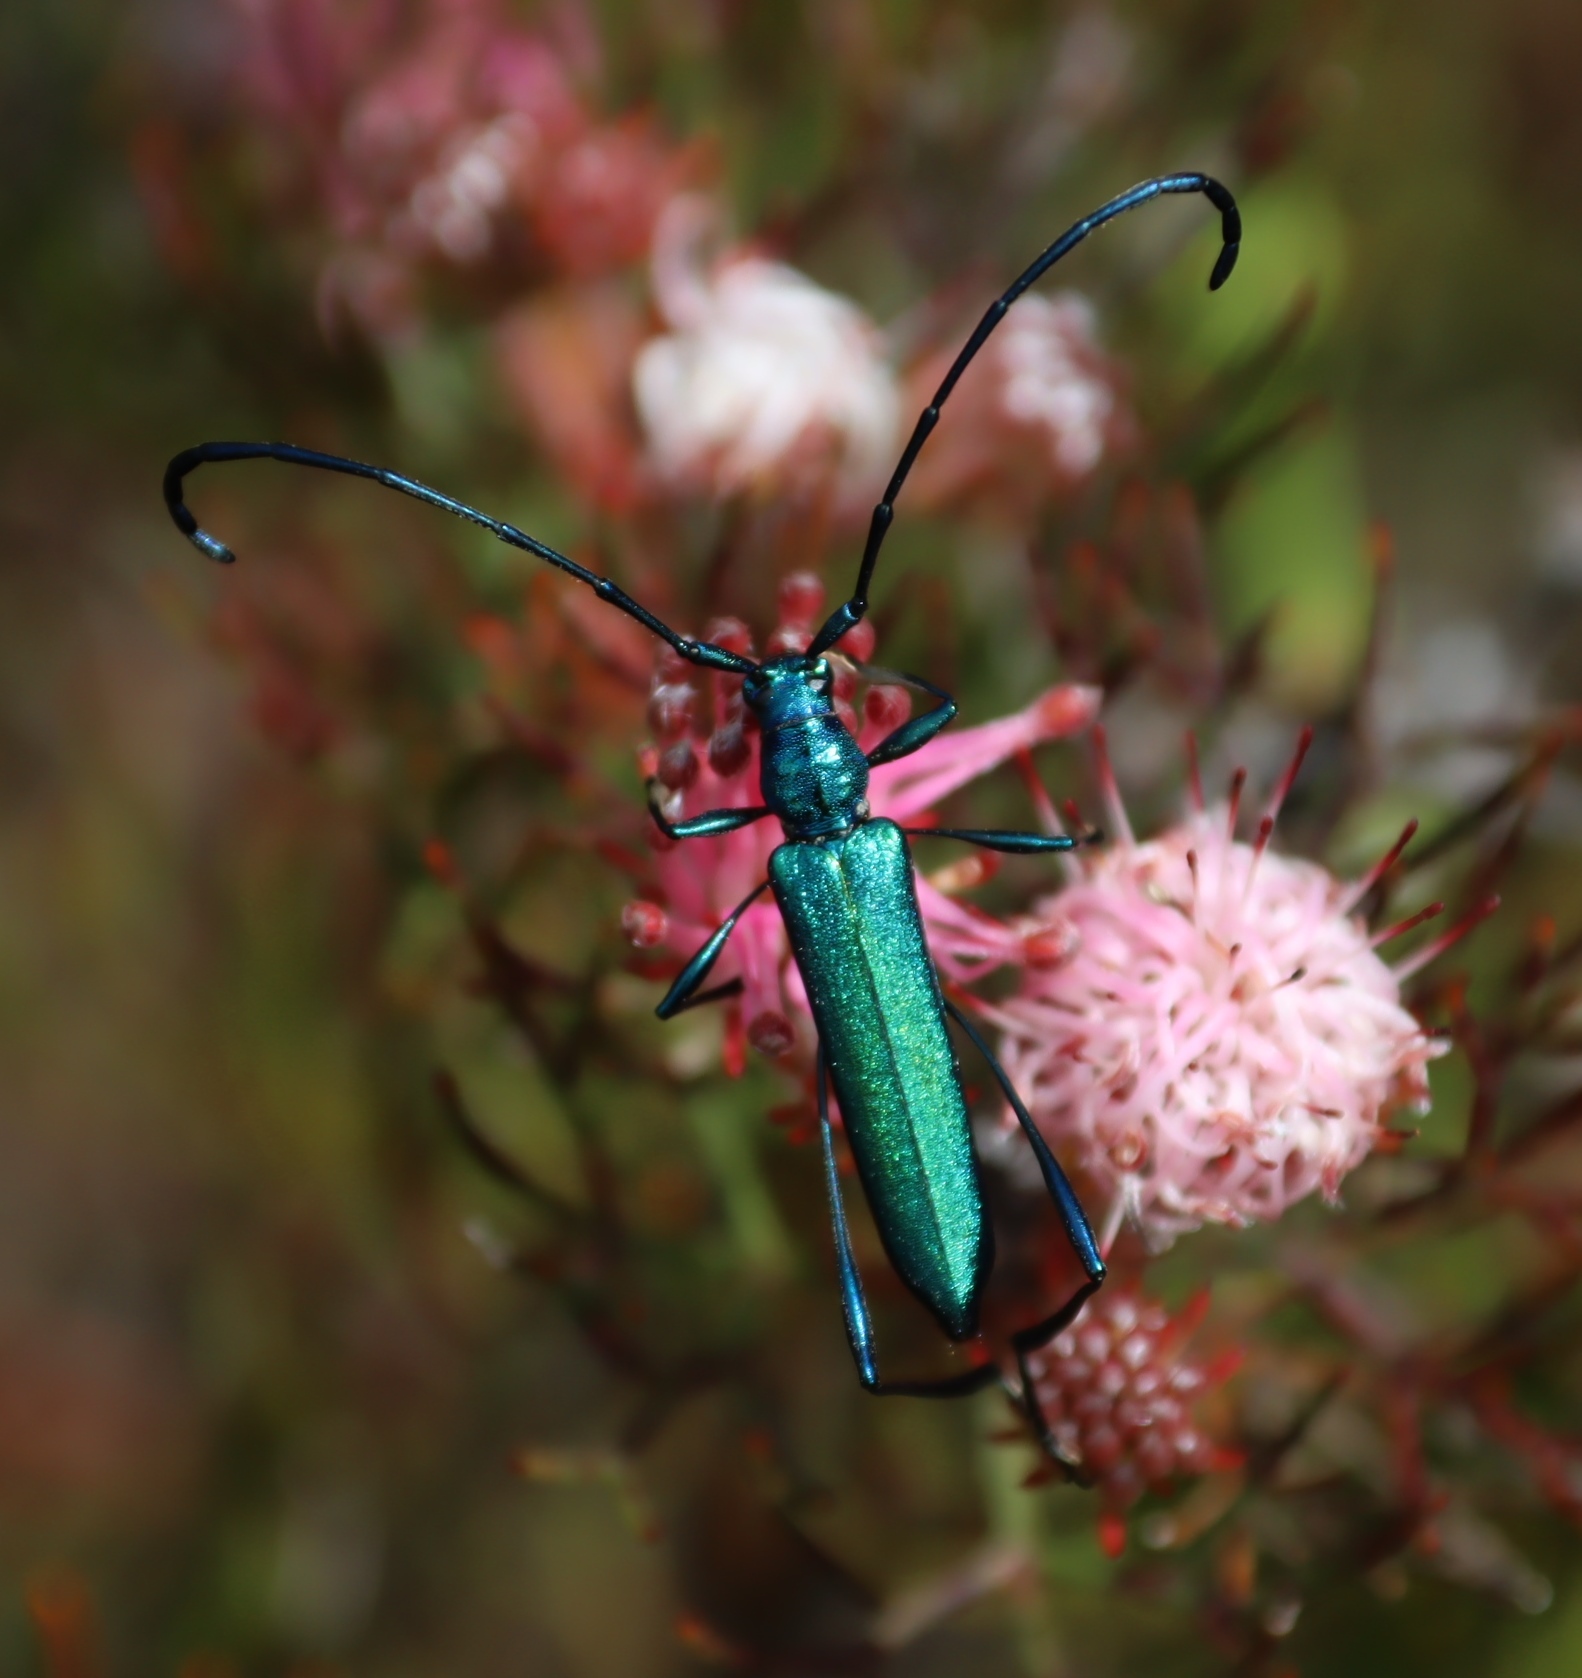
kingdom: Plantae
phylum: Tracheophyta
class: Magnoliopsida
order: Proteales
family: Proteaceae
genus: Serruria
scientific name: Serruria fasciflora
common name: Common pin spiderhead
